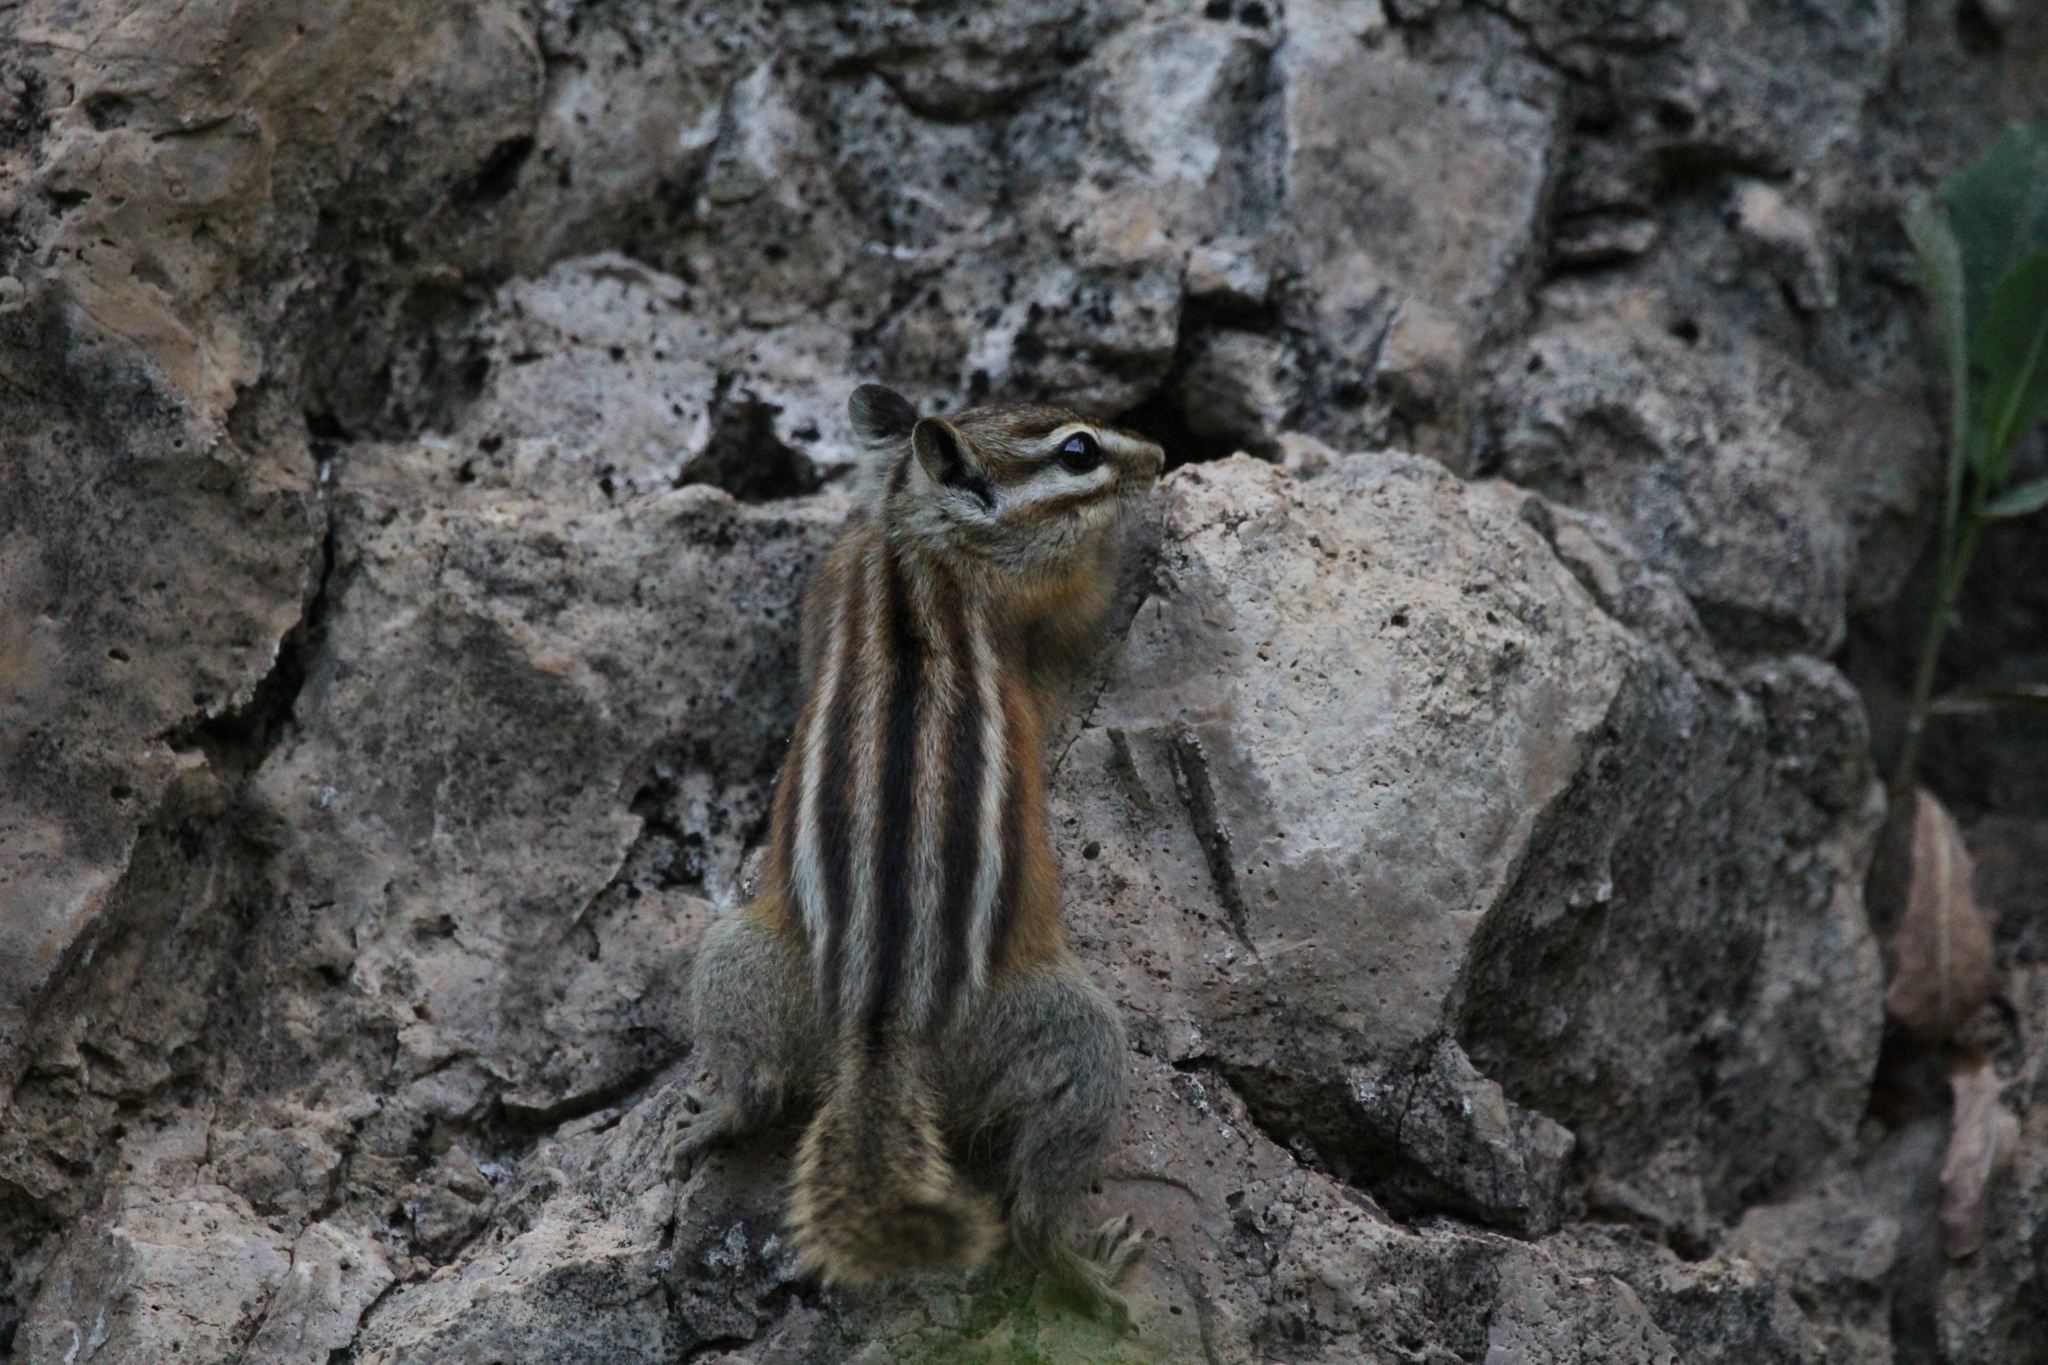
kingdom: Animalia
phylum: Chordata
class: Mammalia
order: Rodentia
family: Sciuridae
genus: Tamias
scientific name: Tamias minimus
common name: Least chipmunk
